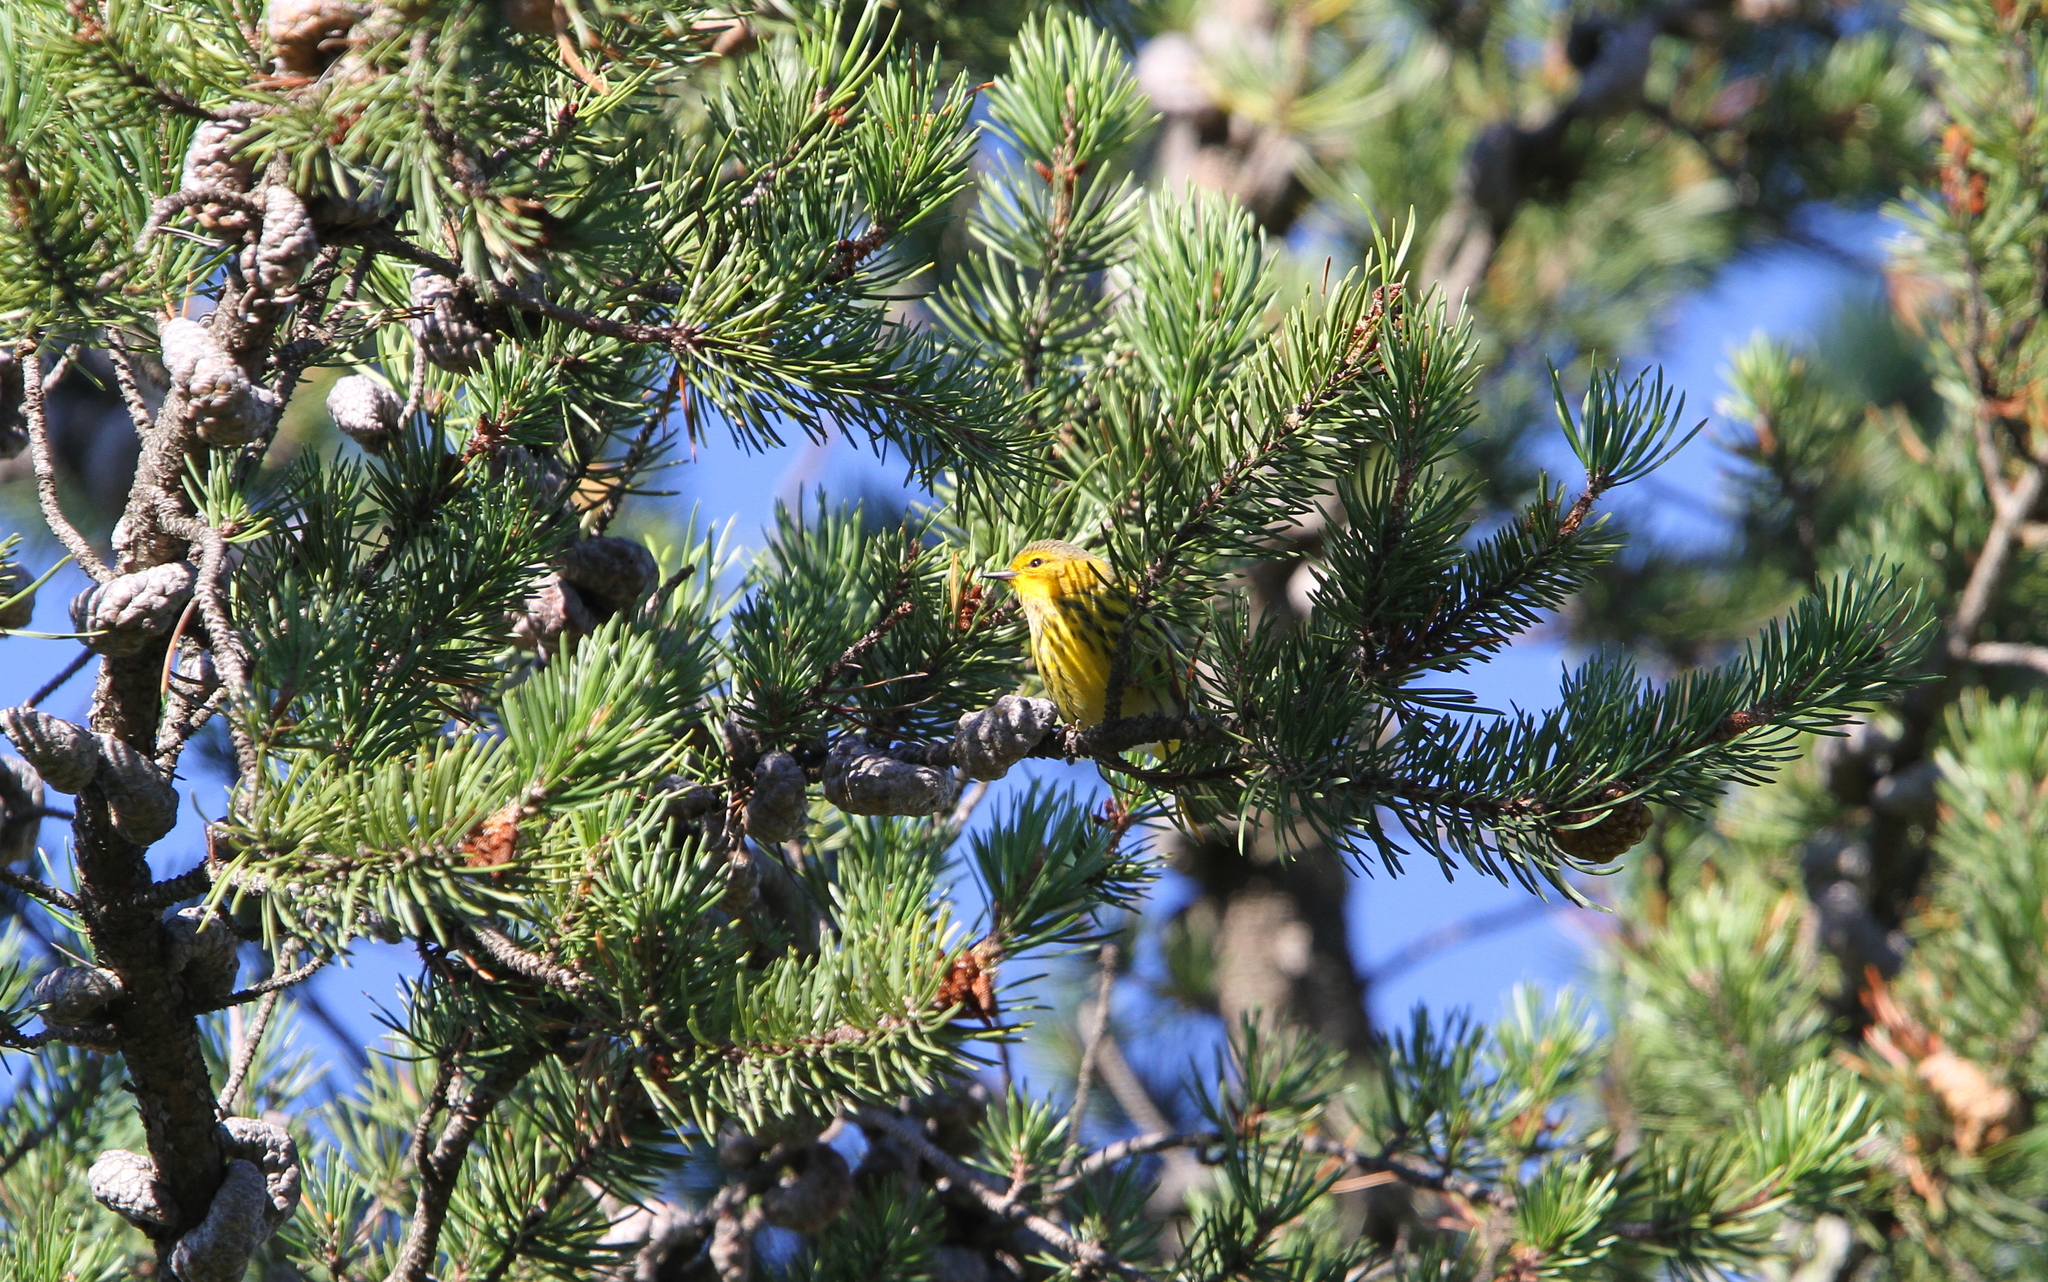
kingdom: Animalia
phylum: Chordata
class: Aves
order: Passeriformes
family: Parulidae
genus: Setophaga
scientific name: Setophaga tigrina
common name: Cape may warbler
